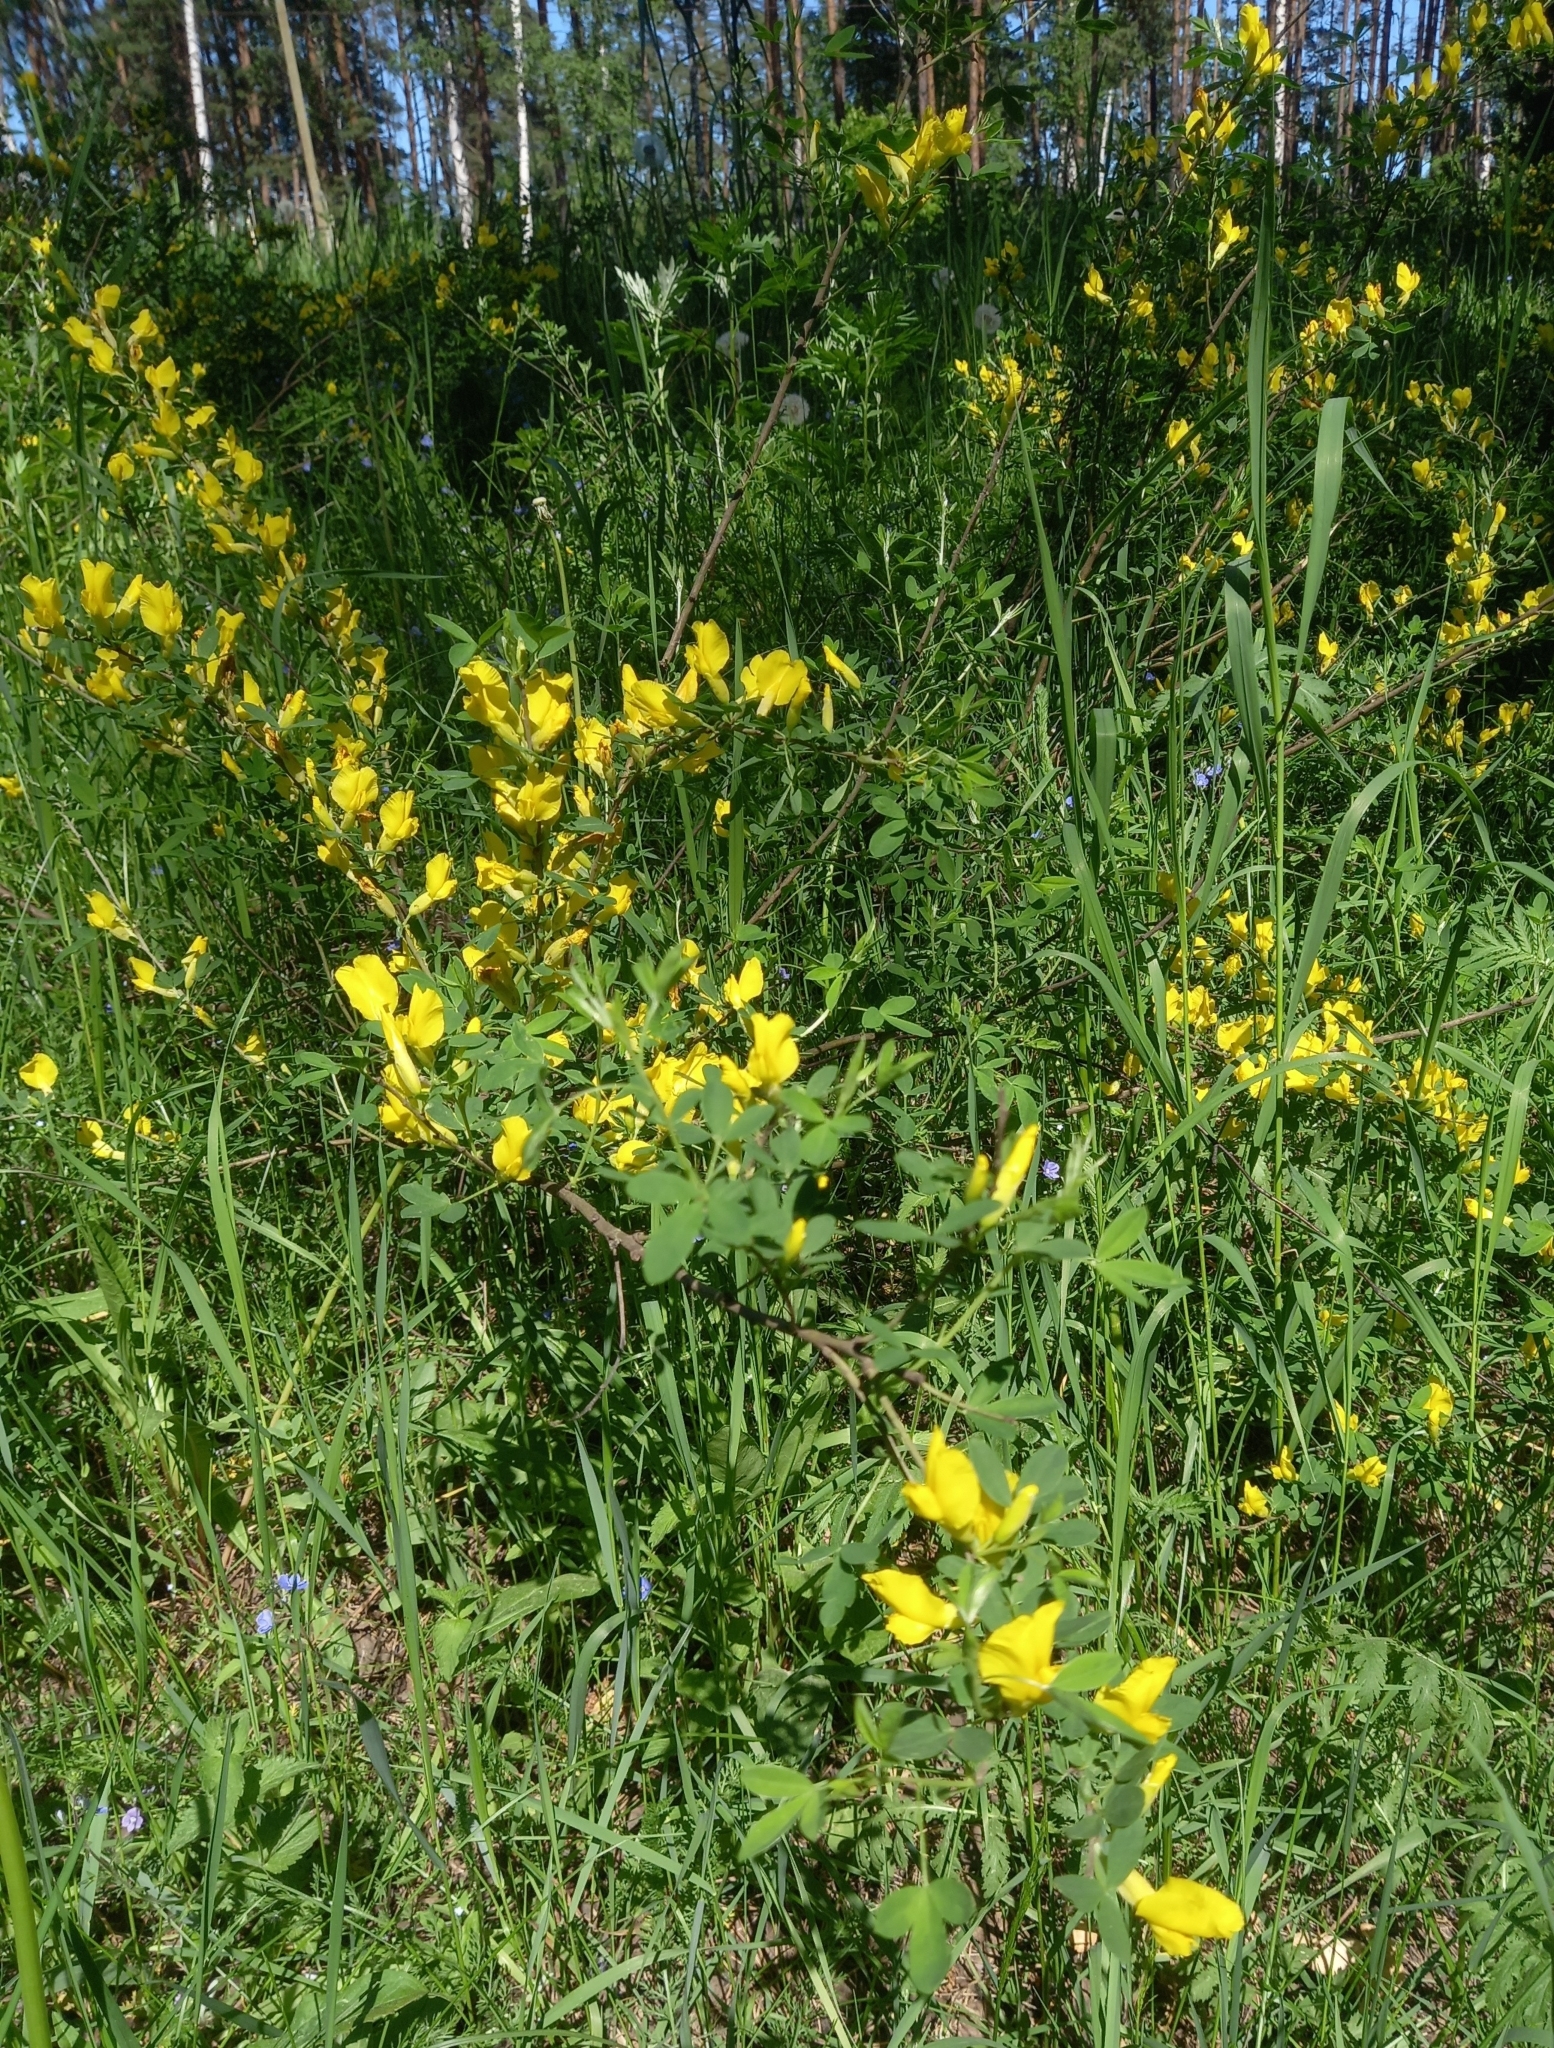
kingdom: Plantae
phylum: Tracheophyta
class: Magnoliopsida
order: Fabales
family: Fabaceae
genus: Chamaecytisus
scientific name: Chamaecytisus ruthenicus
